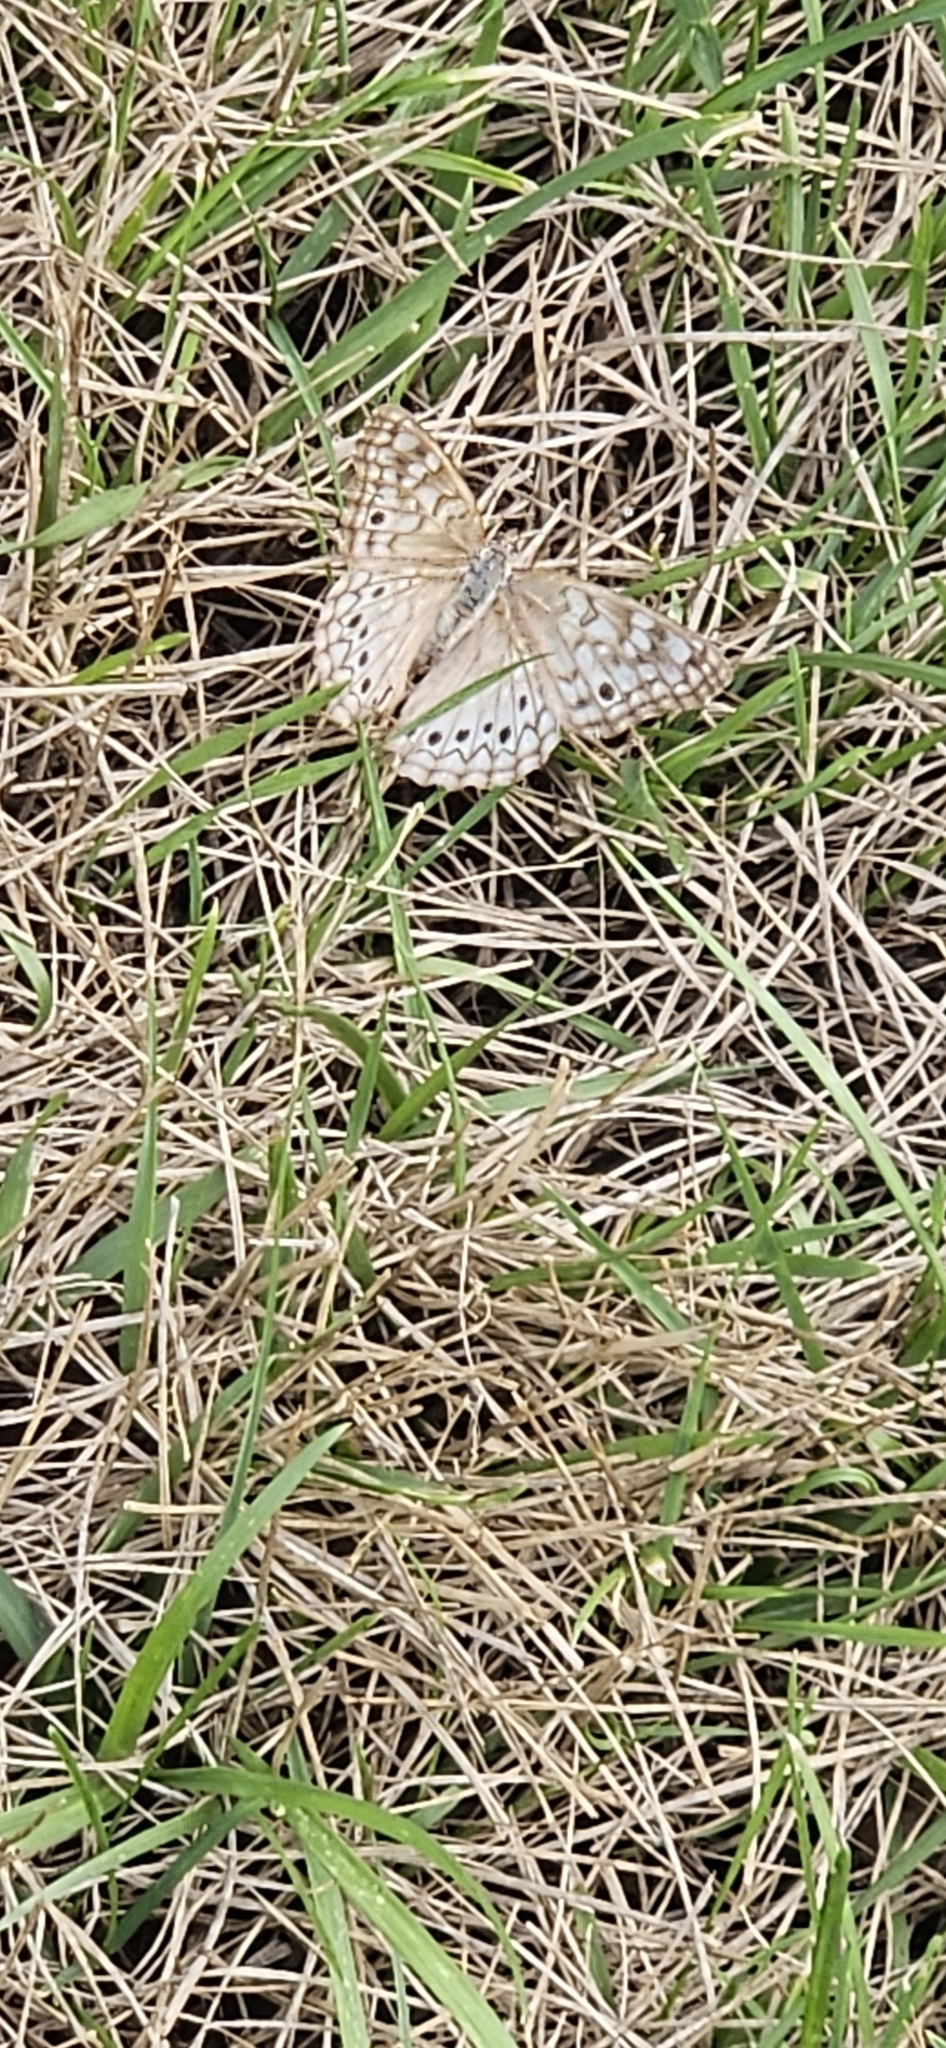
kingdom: Animalia
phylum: Arthropoda
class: Insecta
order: Lepidoptera
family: Nymphalidae
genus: Asterocampa
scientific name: Asterocampa celtis
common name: Hackberry emperor
